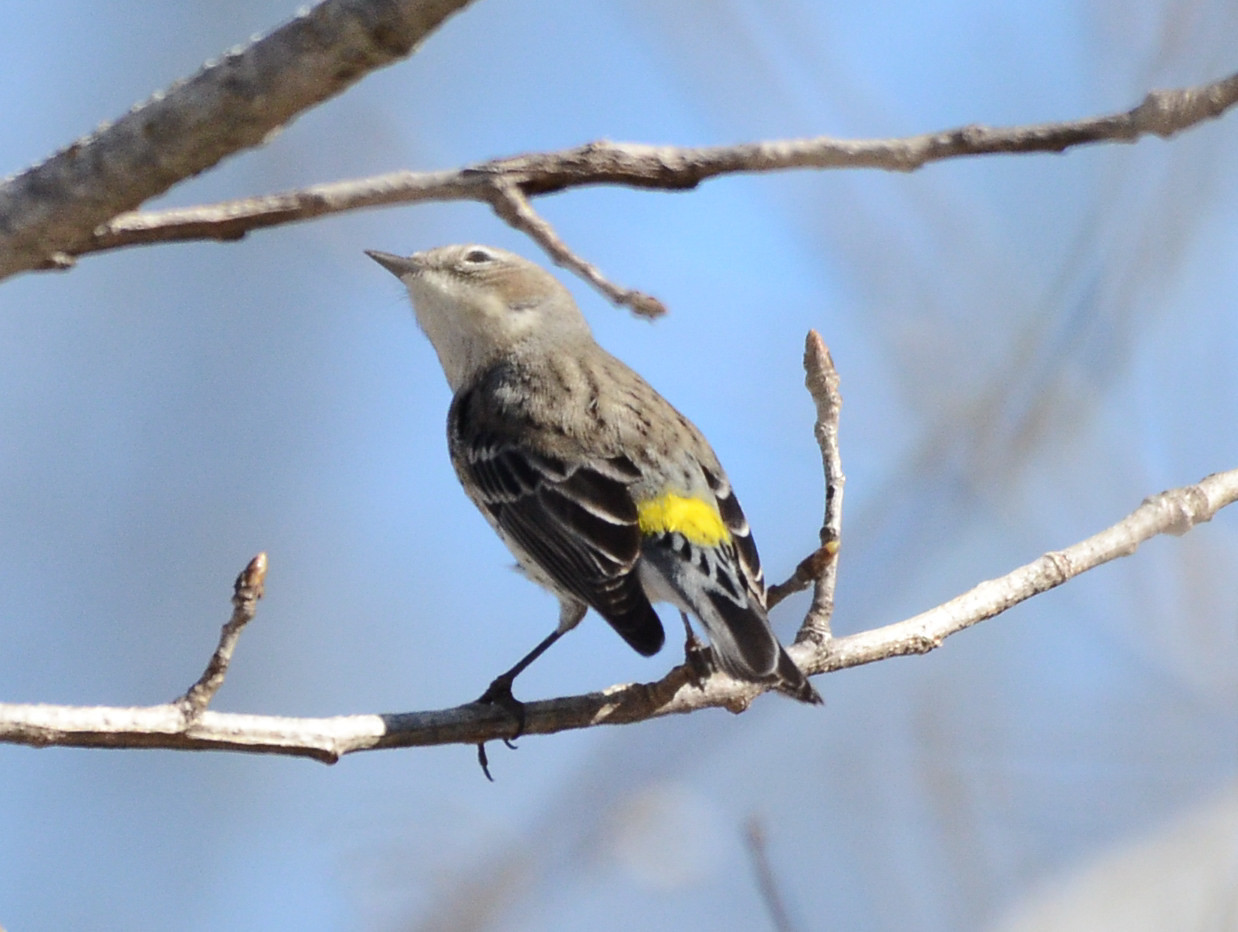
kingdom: Animalia
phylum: Chordata
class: Aves
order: Passeriformes
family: Parulidae
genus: Setophaga
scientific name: Setophaga coronata
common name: Myrtle warbler
